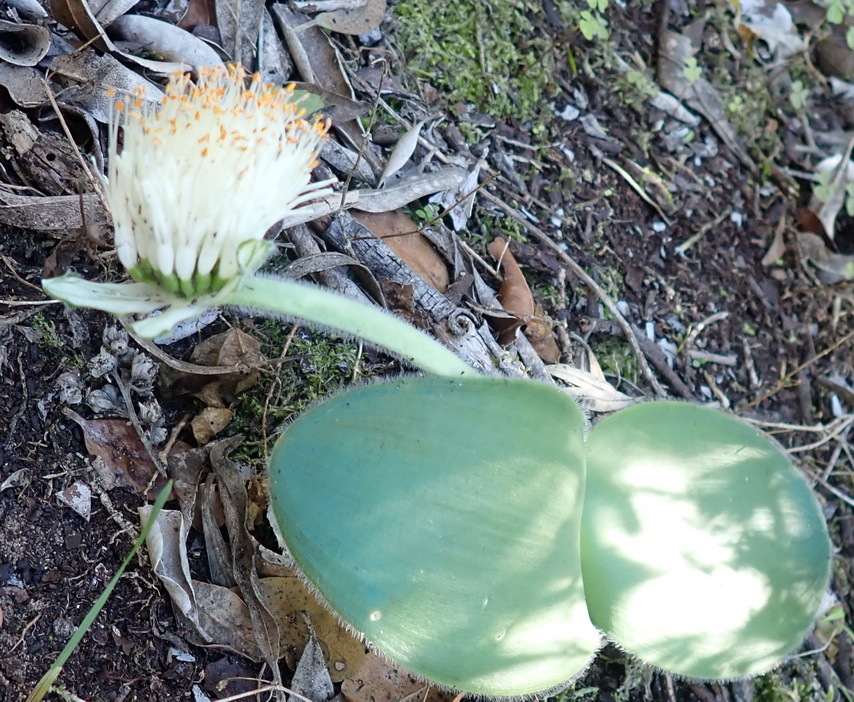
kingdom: Plantae
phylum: Tracheophyta
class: Liliopsida
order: Asparagales
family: Amaryllidaceae
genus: Haemanthus
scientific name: Haemanthus albiflos
